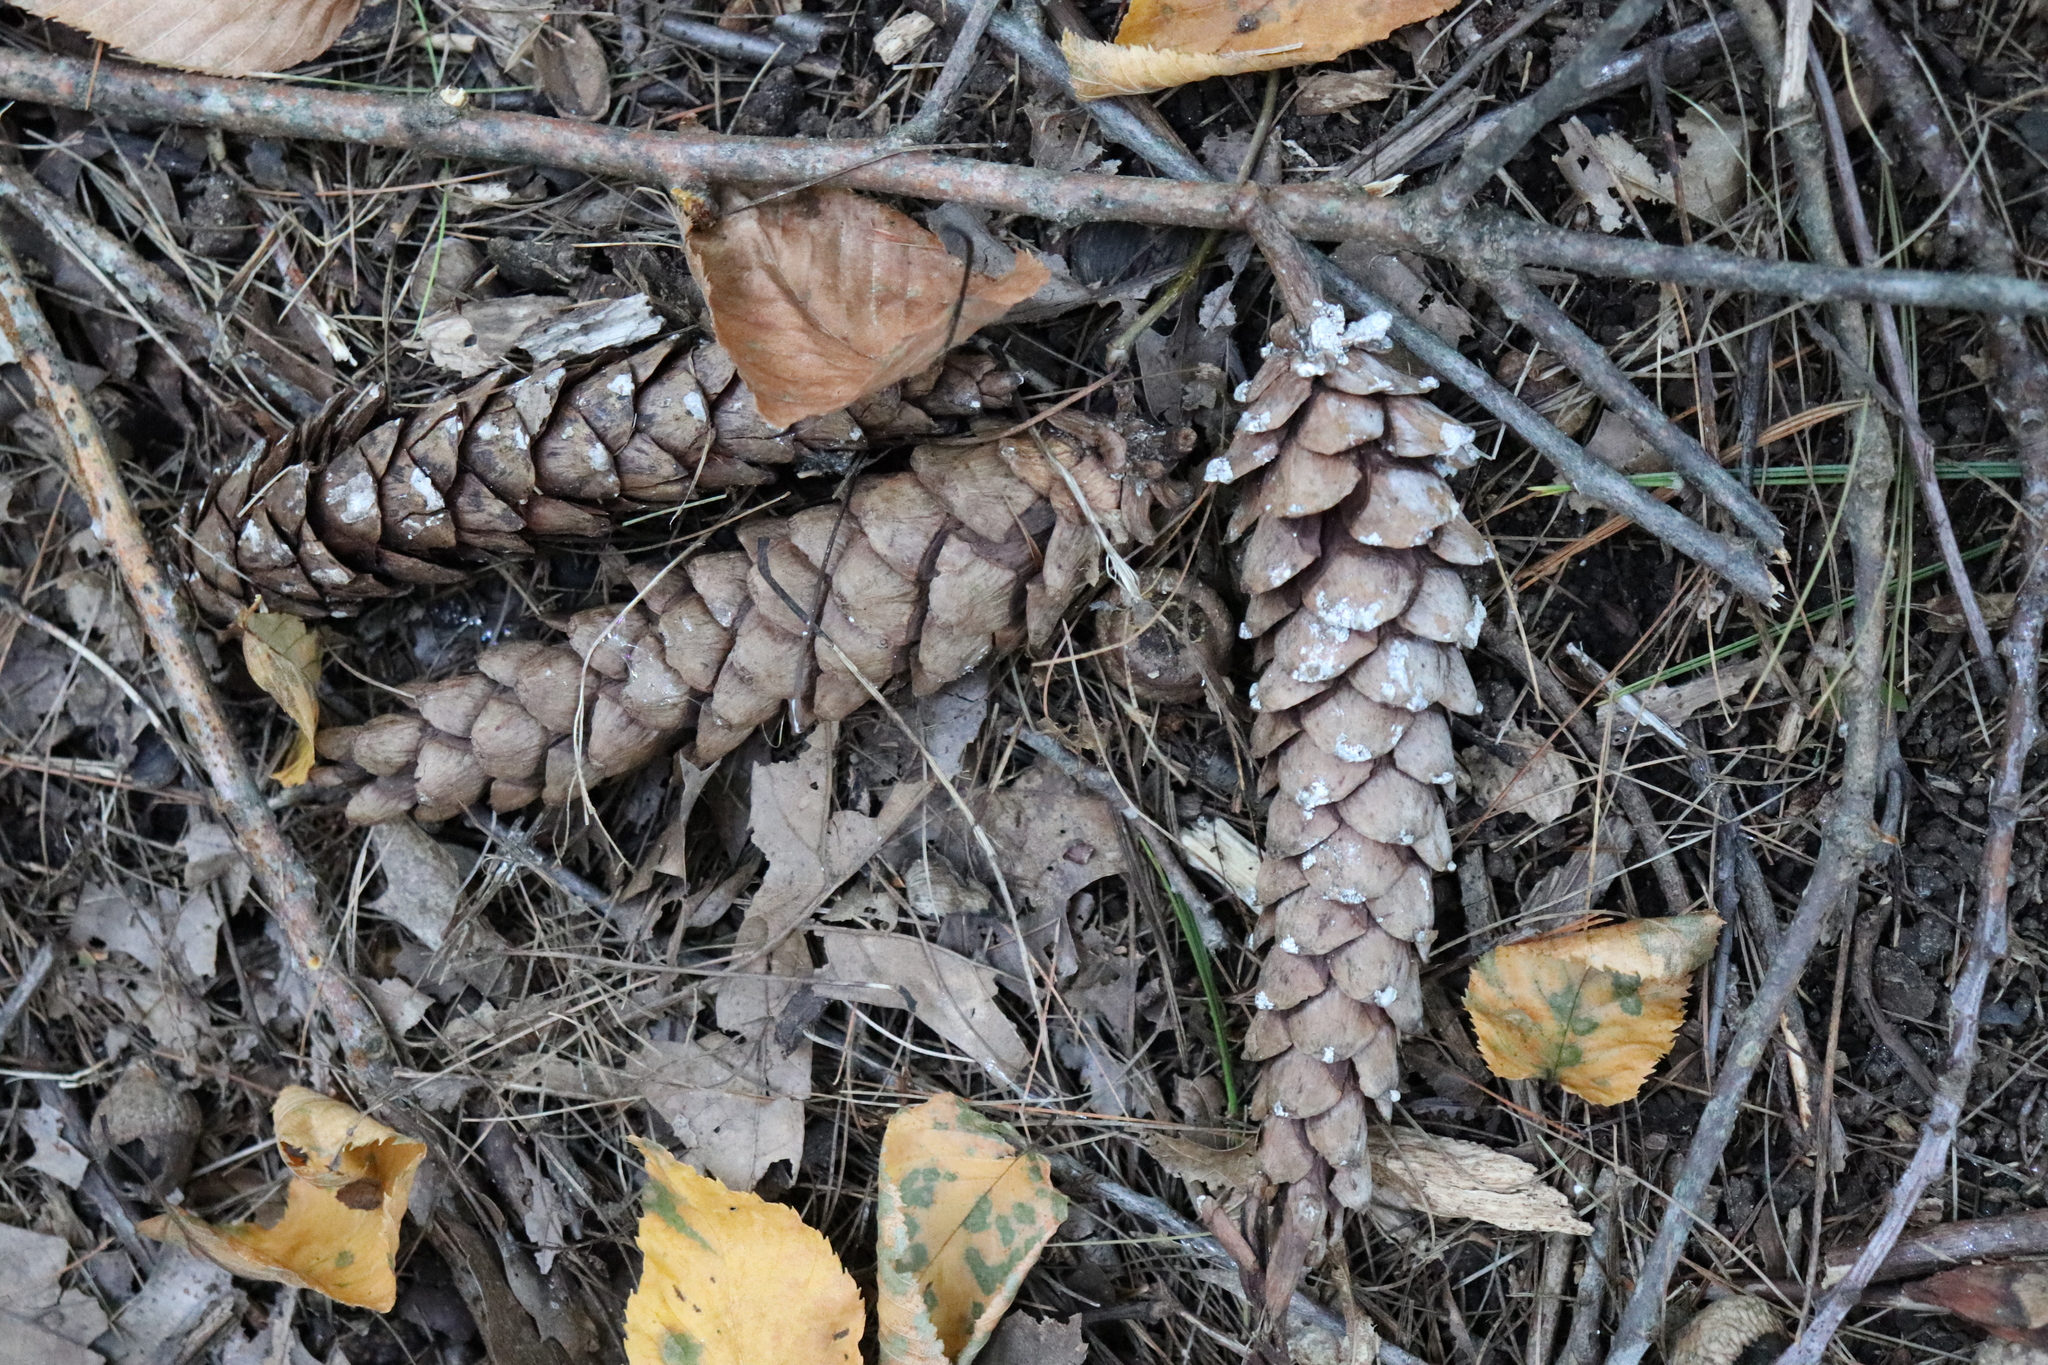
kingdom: Plantae
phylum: Tracheophyta
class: Pinopsida
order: Pinales
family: Pinaceae
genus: Pinus
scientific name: Pinus strobus
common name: Weymouth pine
